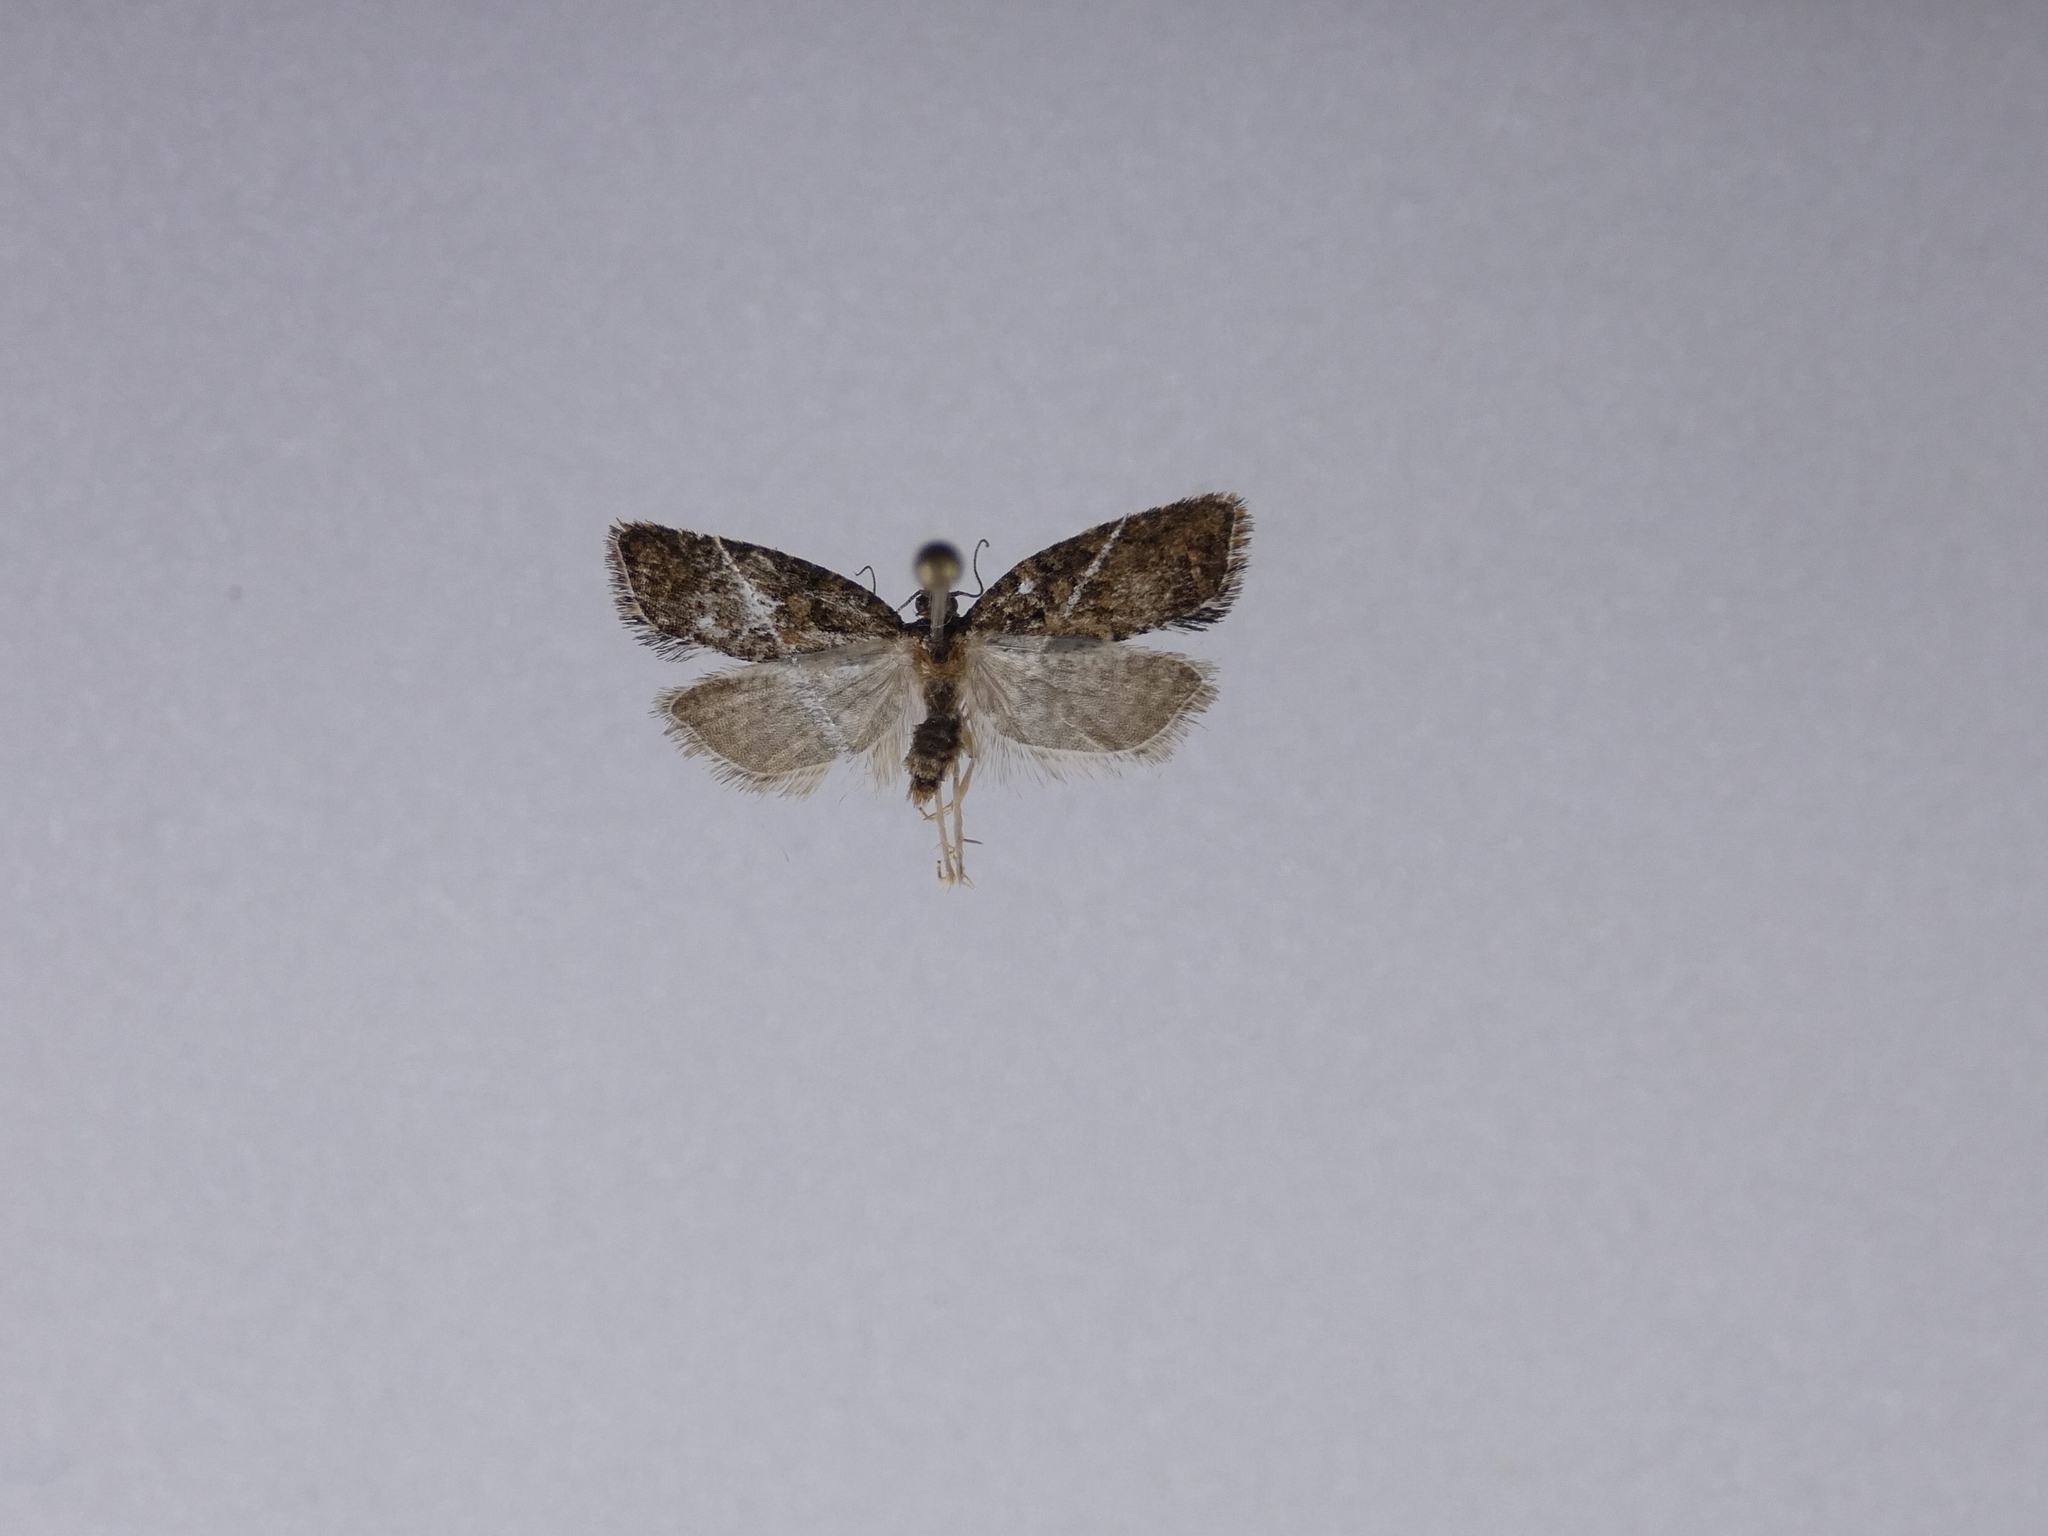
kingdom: Animalia
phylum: Arthropoda
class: Insecta
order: Lepidoptera
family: Tortricidae
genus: Capua
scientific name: Capua intractana
